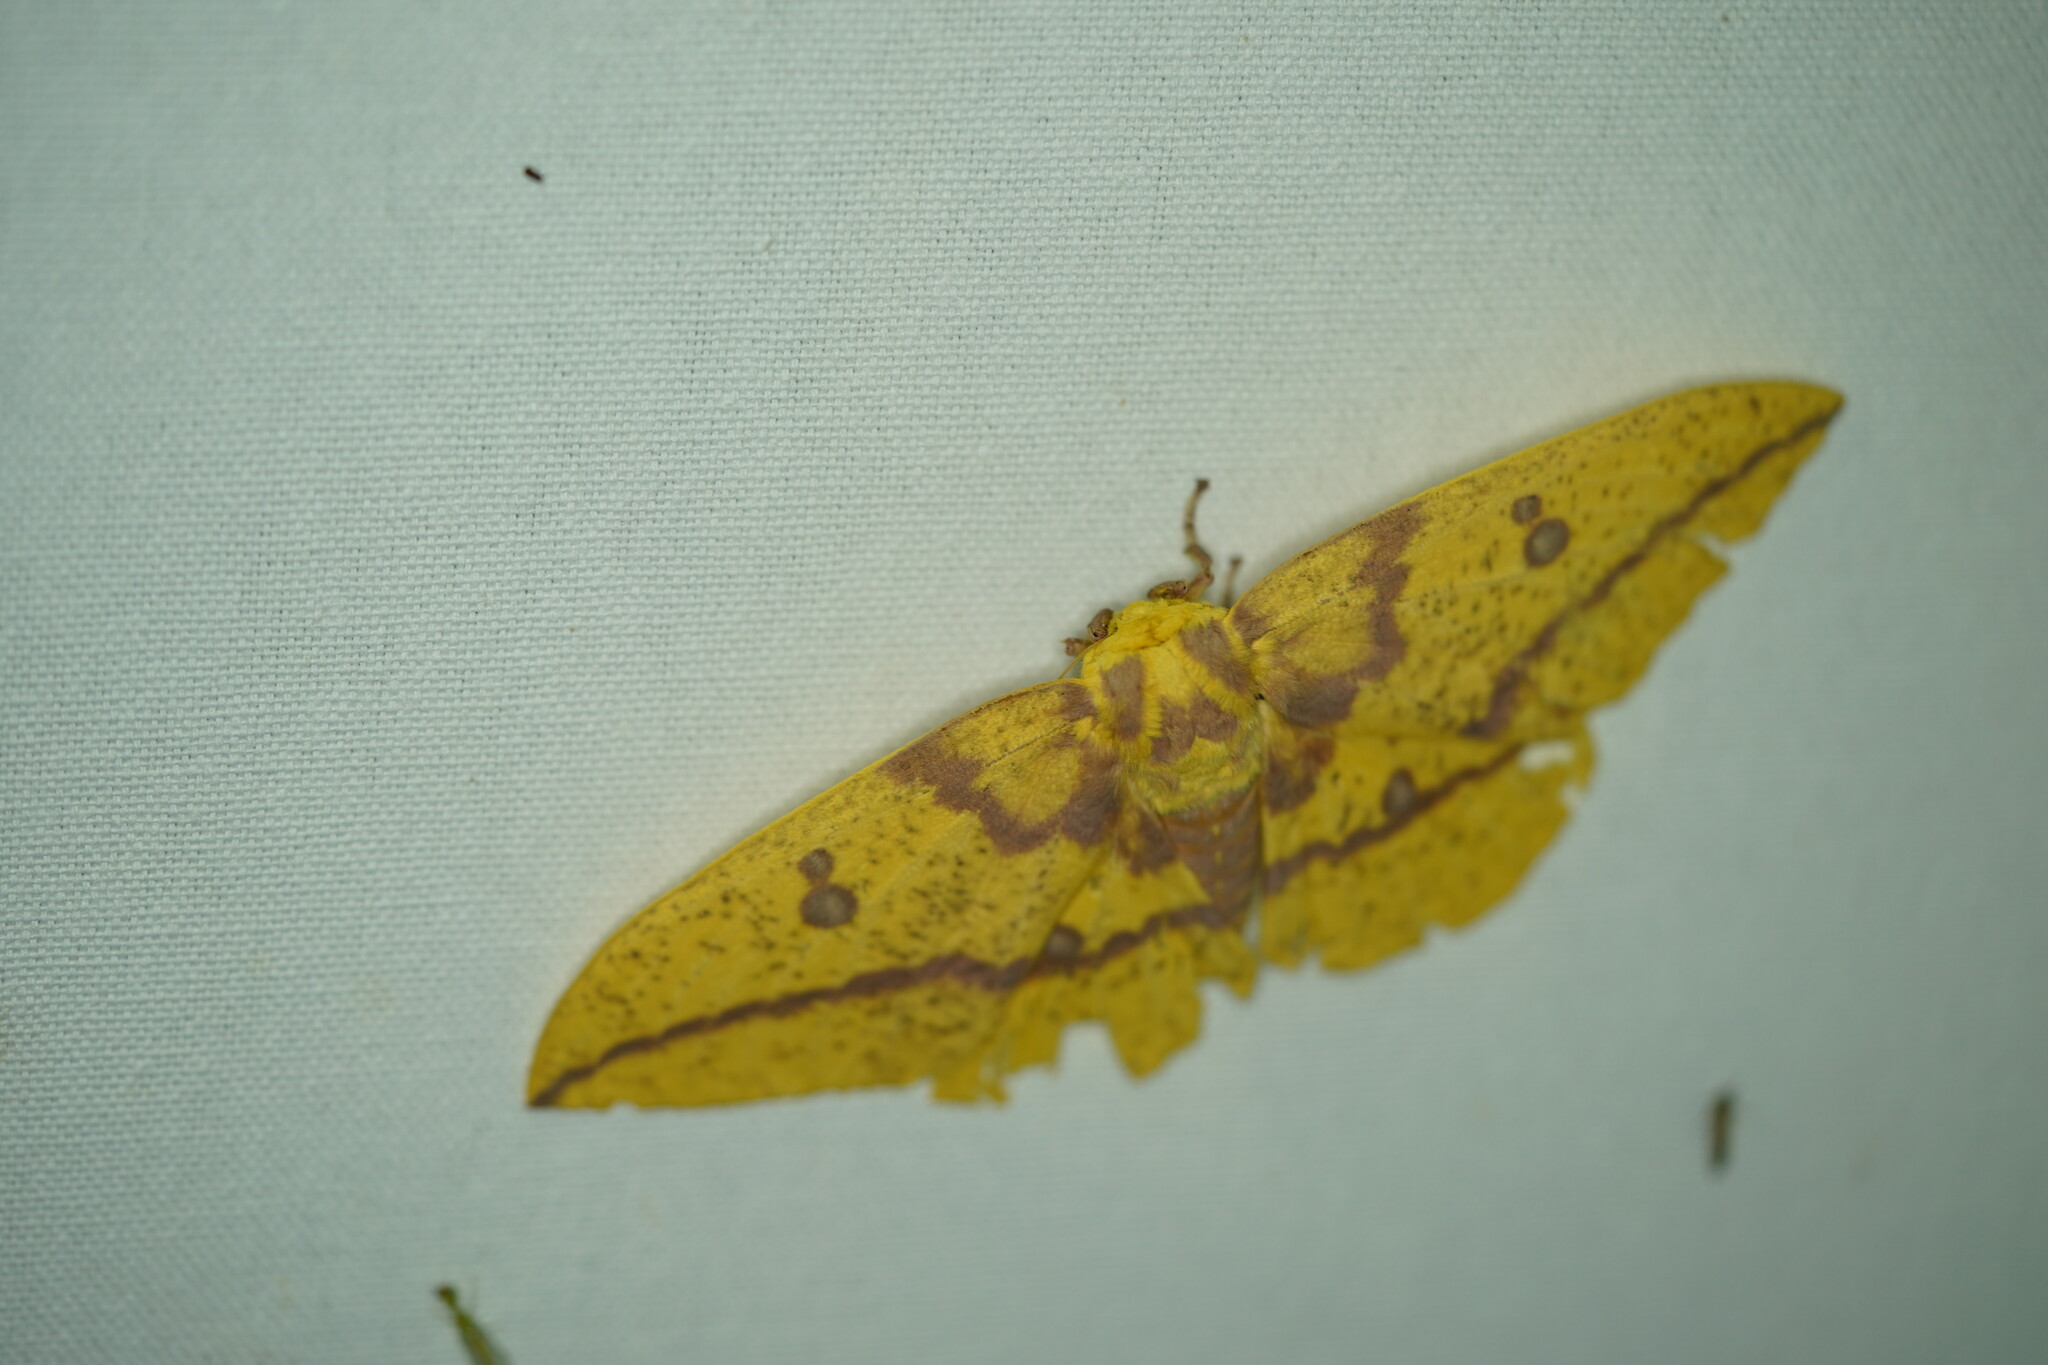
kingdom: Animalia
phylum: Arthropoda
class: Insecta
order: Lepidoptera
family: Saturniidae
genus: Eacles
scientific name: Eacles imperialis
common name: Imperial moth
